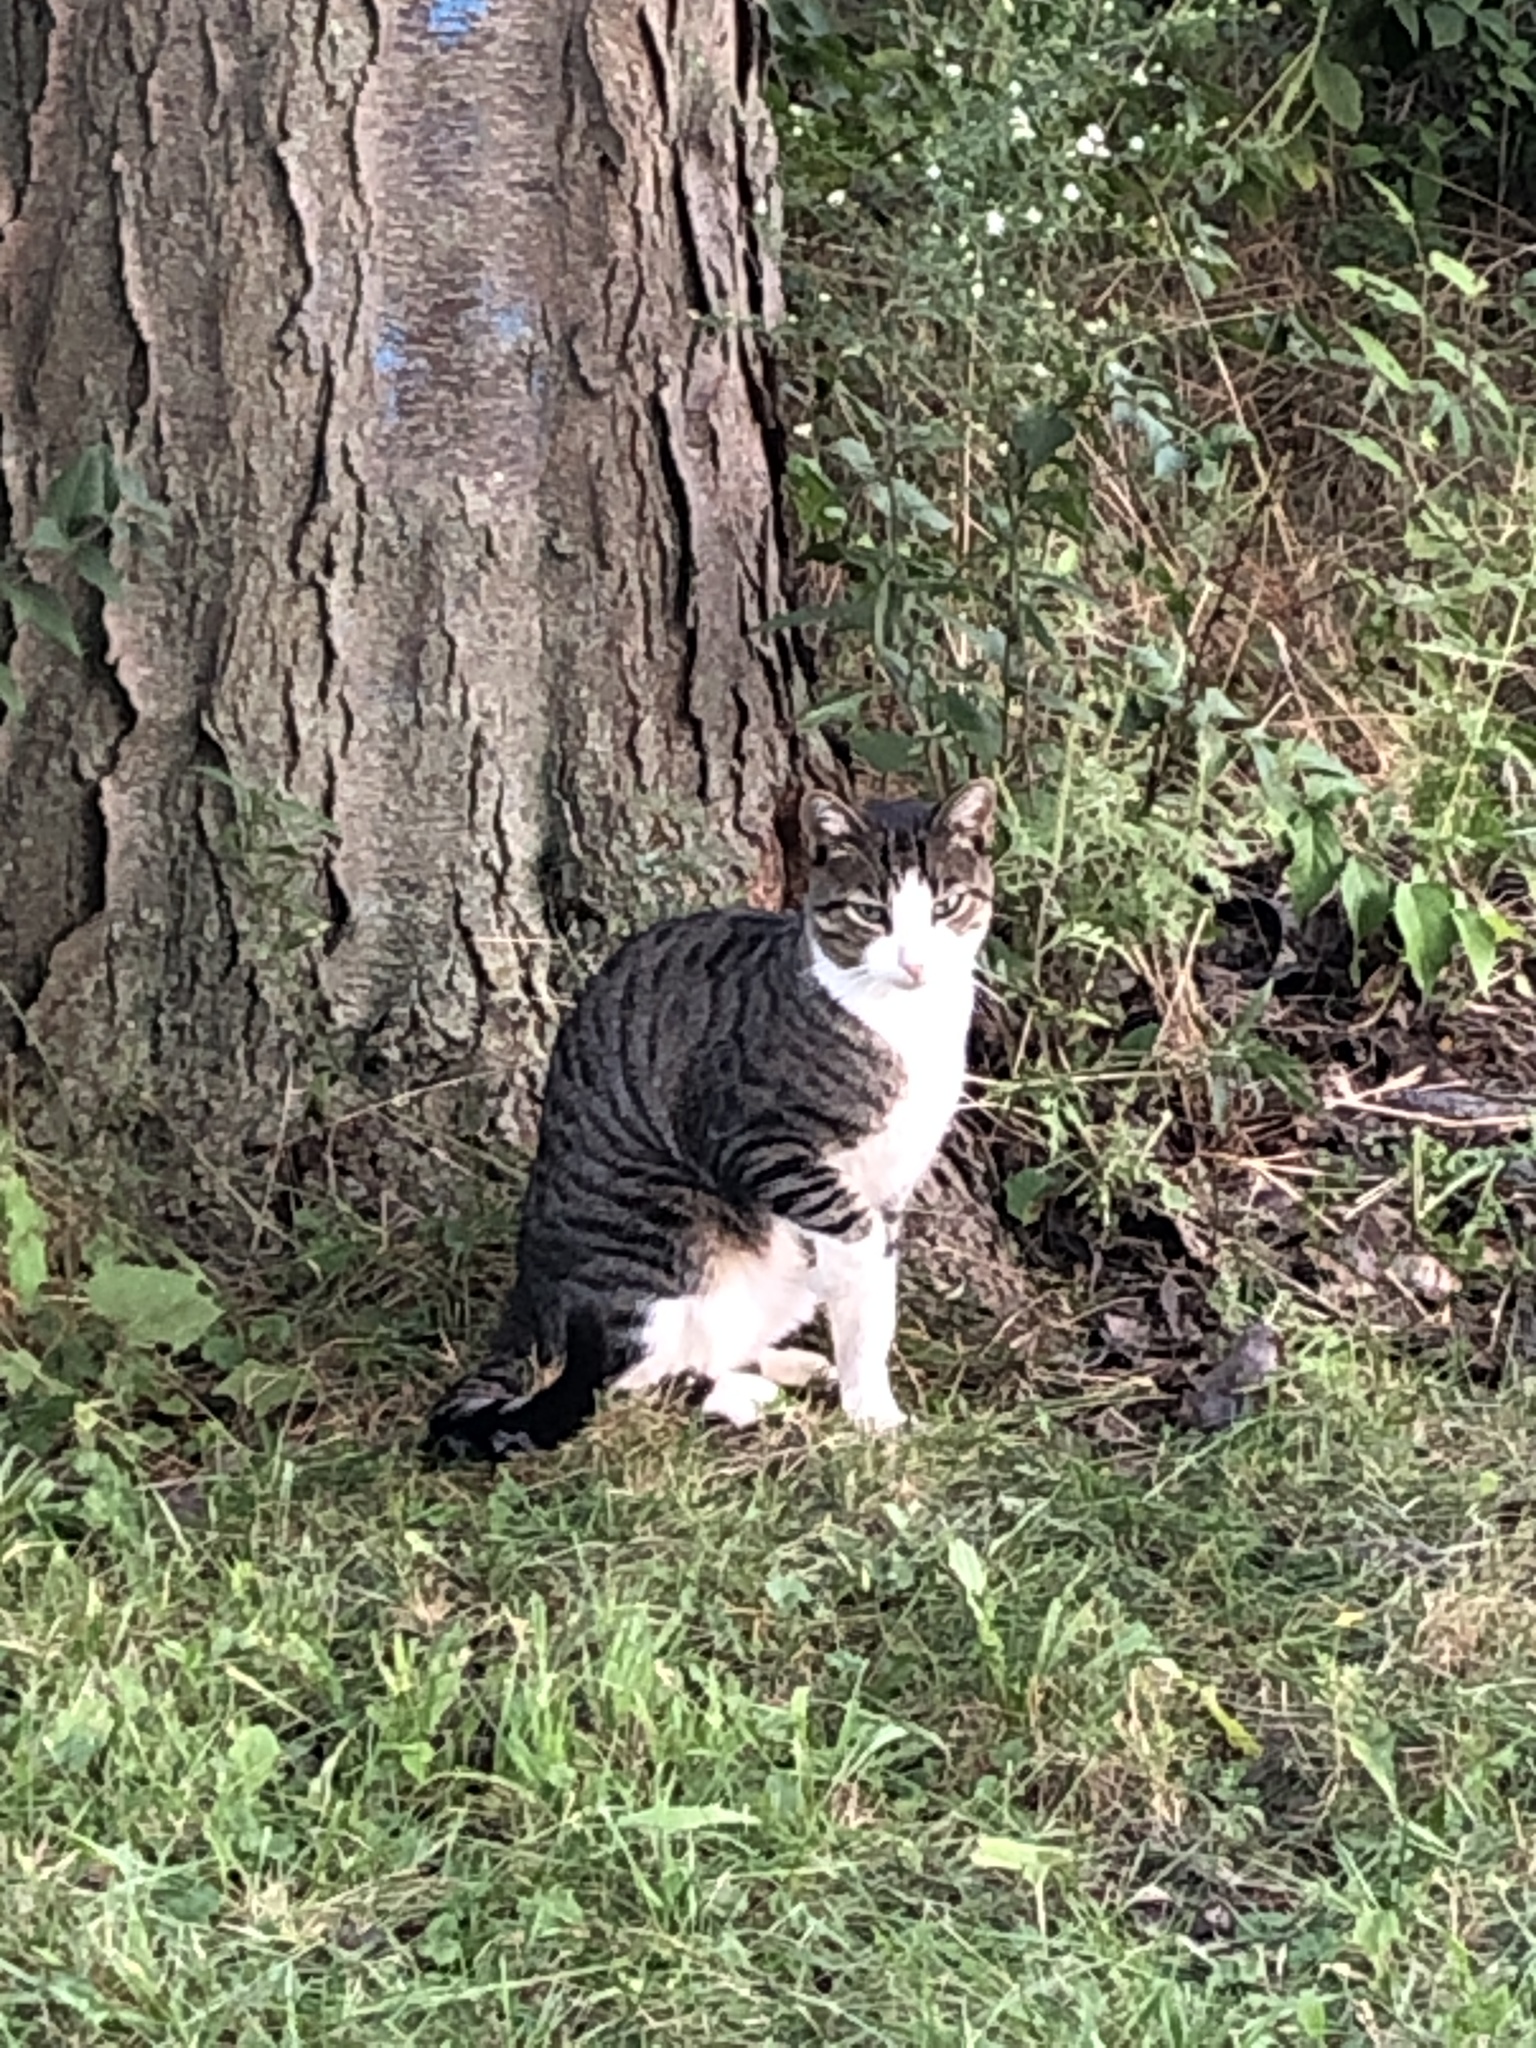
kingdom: Animalia
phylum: Chordata
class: Mammalia
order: Carnivora
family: Felidae
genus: Felis
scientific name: Felis catus
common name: Domestic cat
